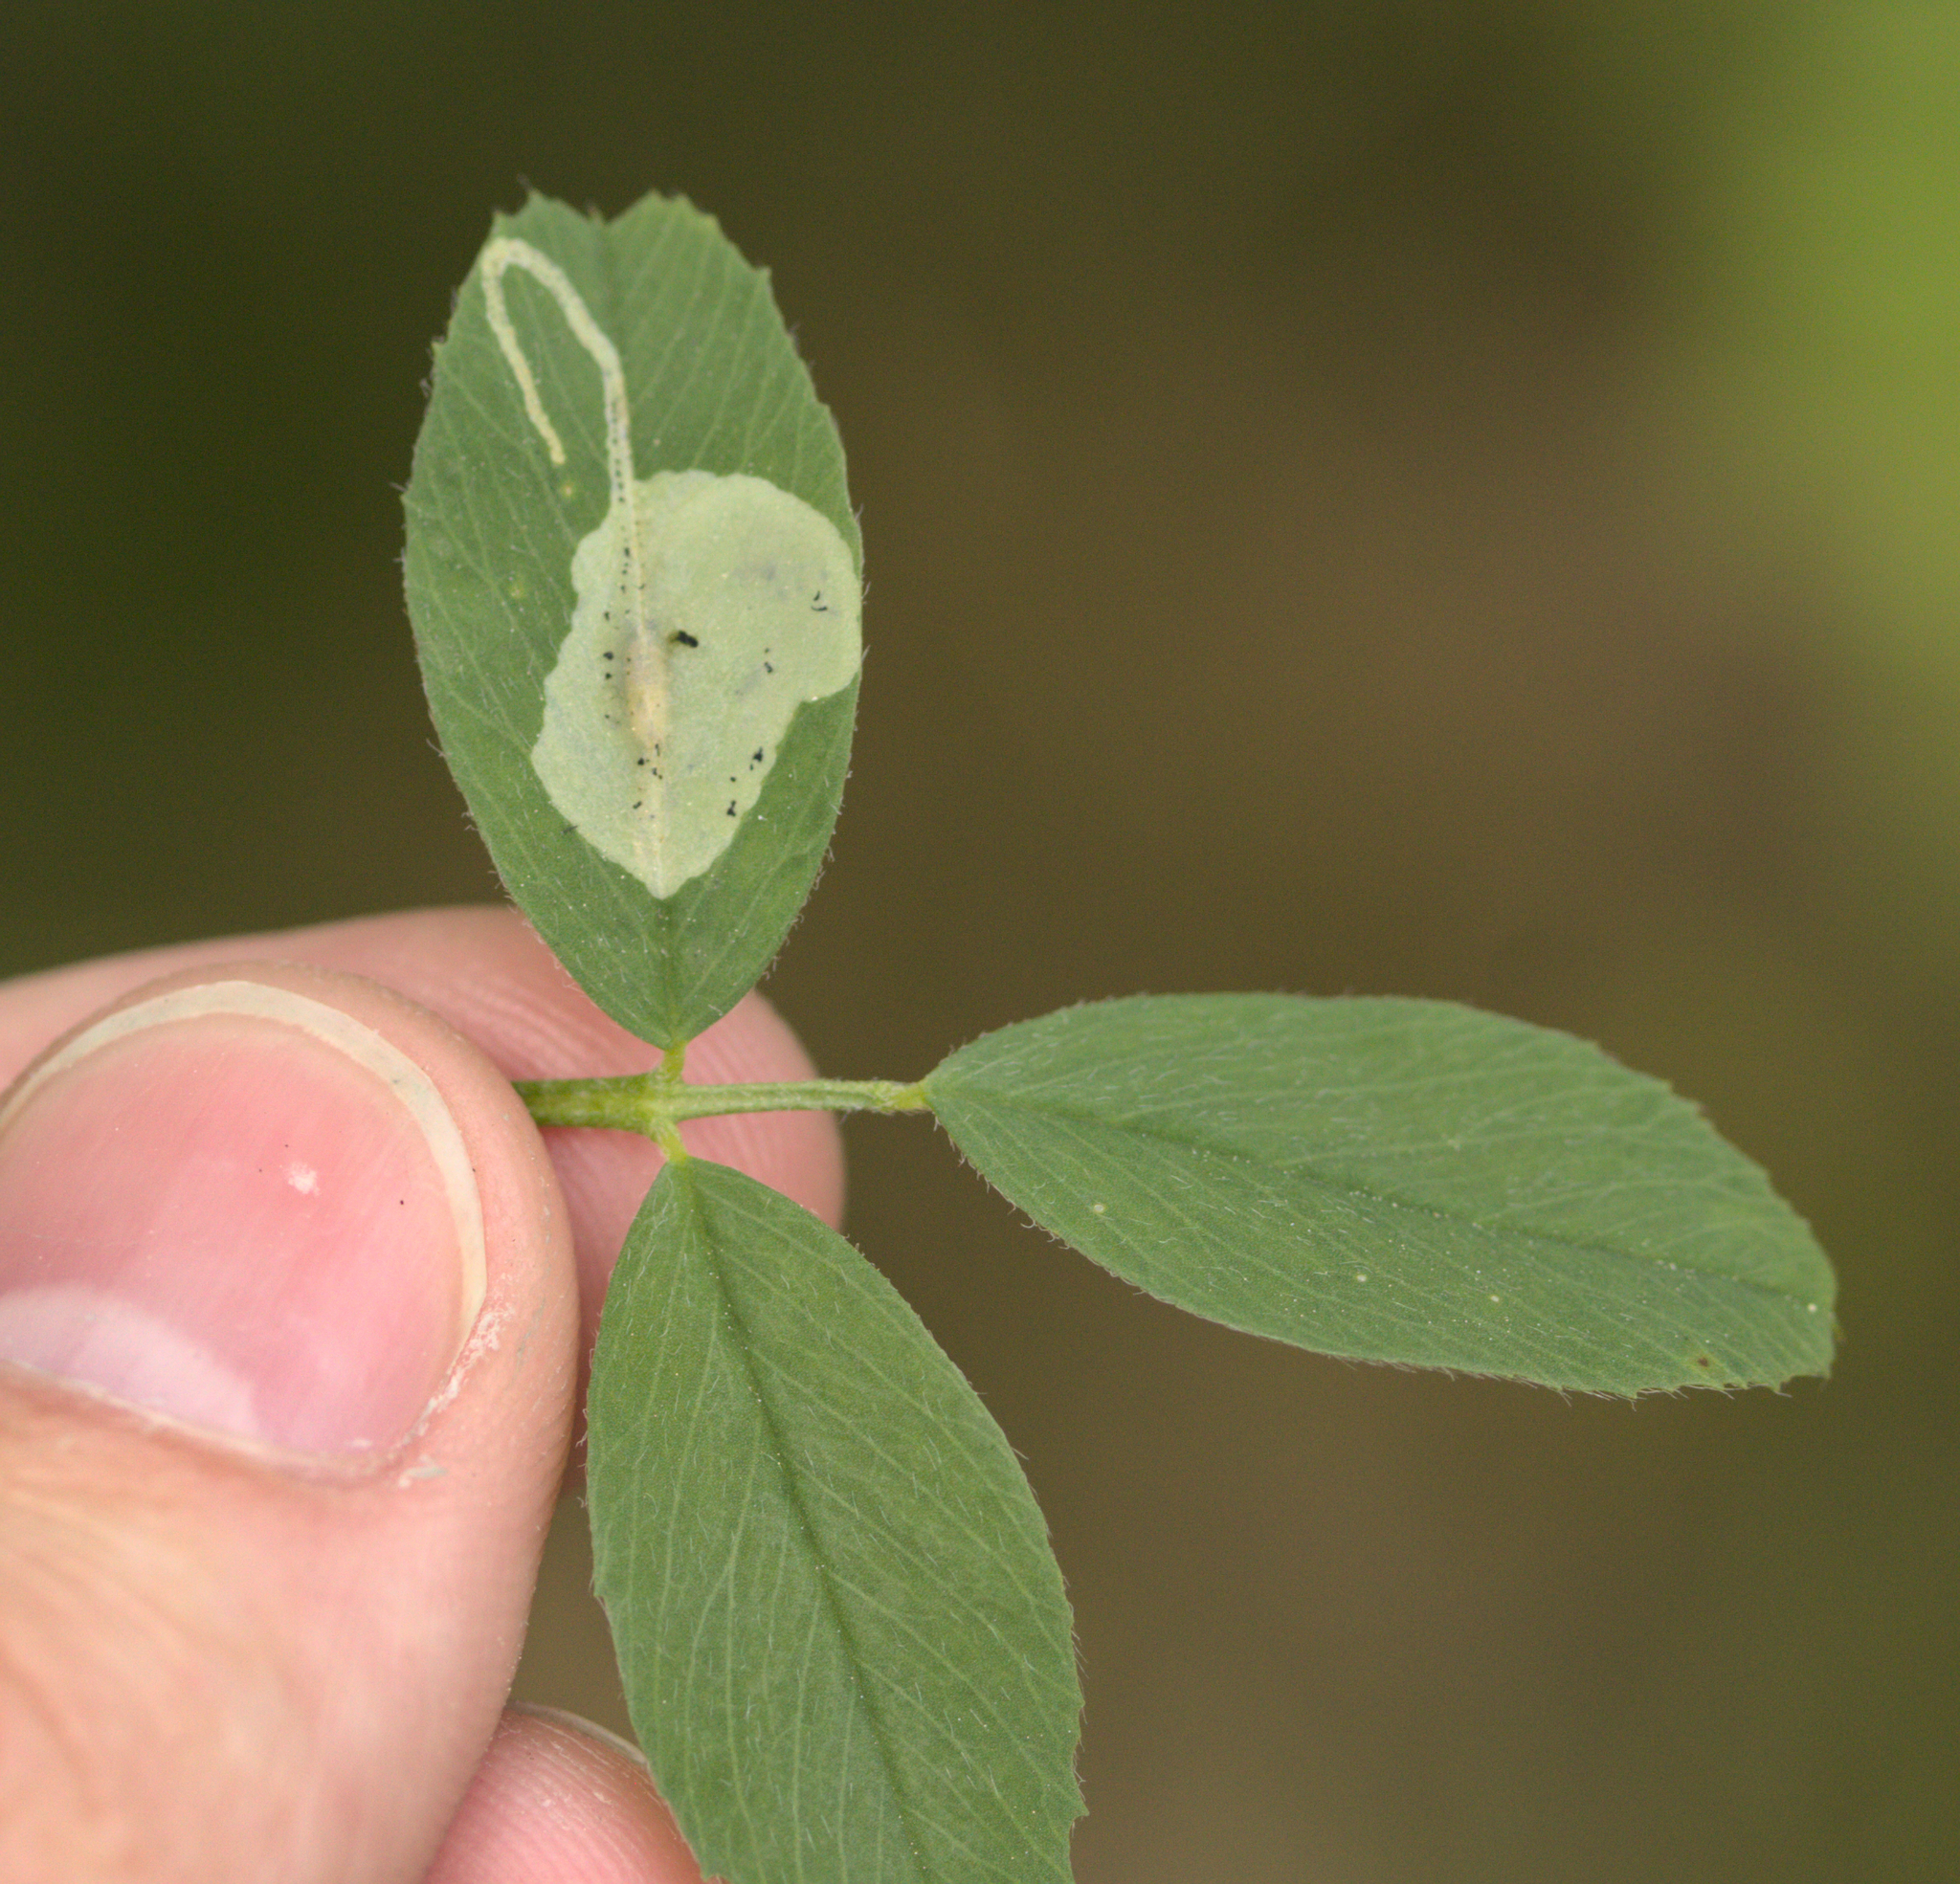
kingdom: Animalia
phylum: Arthropoda
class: Insecta
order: Diptera
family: Agromyzidae
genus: Agromyza
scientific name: Agromyza nana
